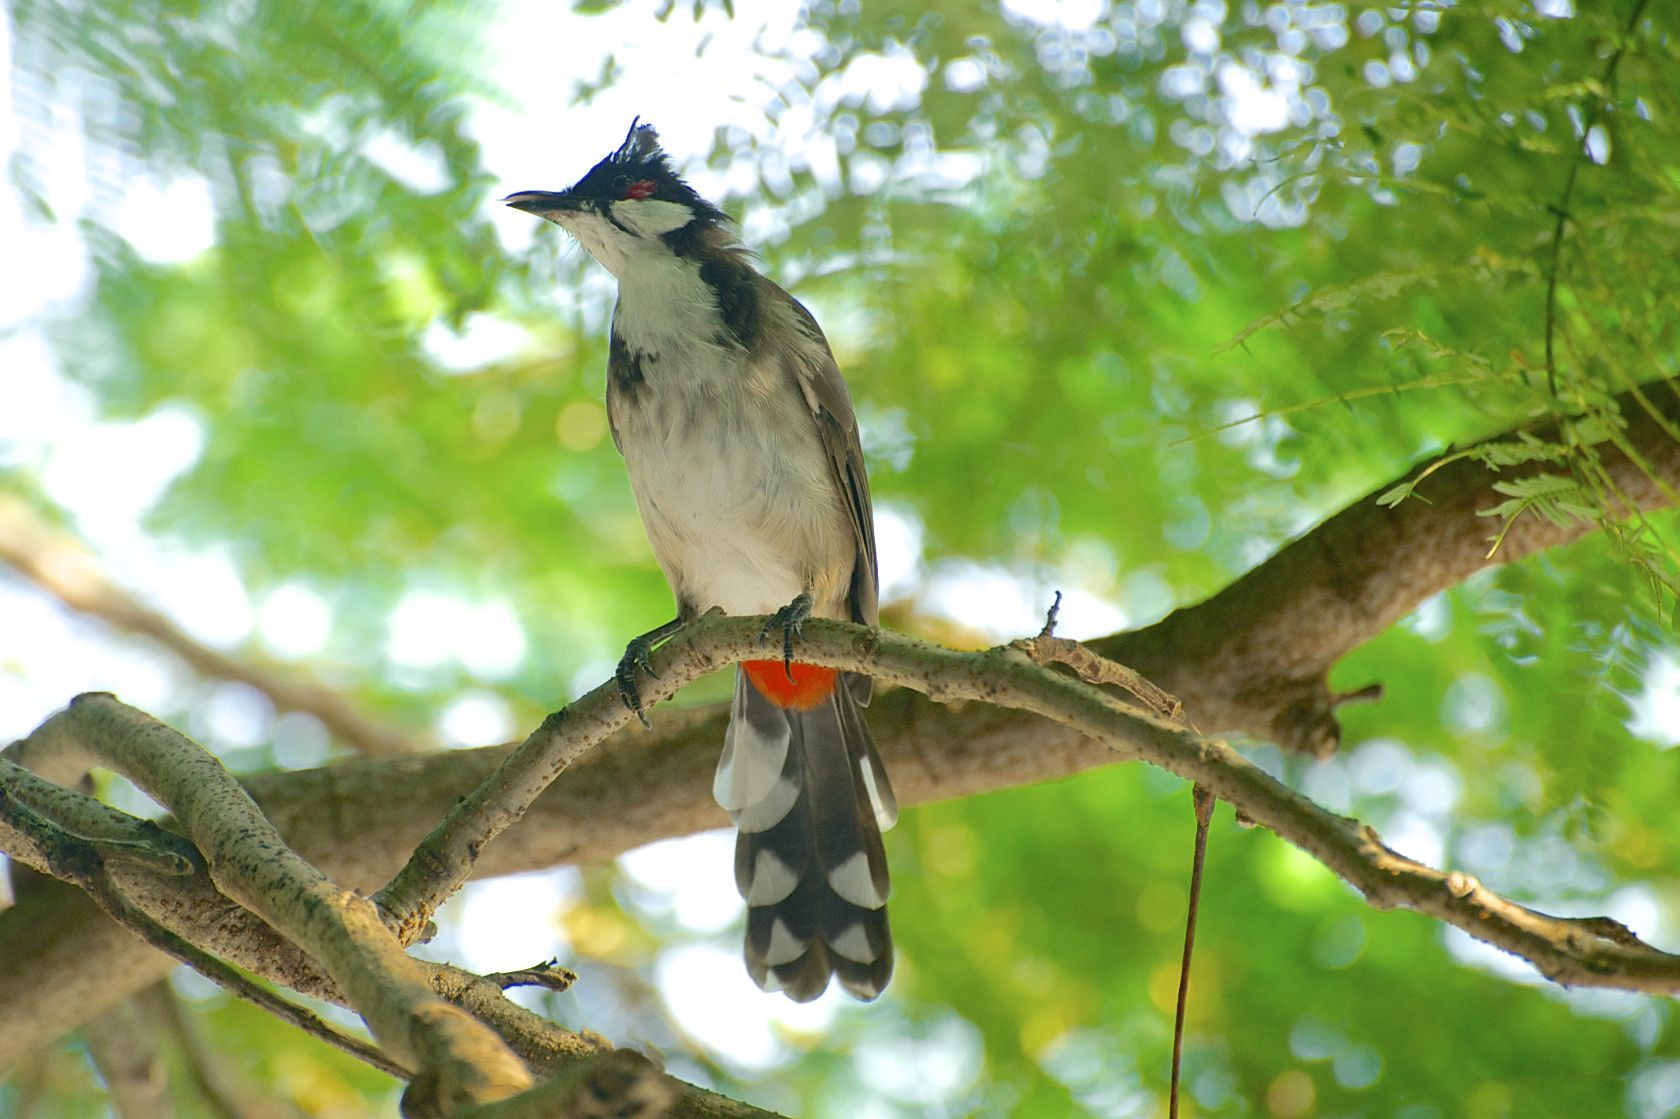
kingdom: Animalia
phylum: Chordata
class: Aves
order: Passeriformes
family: Pycnonotidae
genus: Pycnonotus
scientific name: Pycnonotus jocosus
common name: Red-whiskered bulbul
